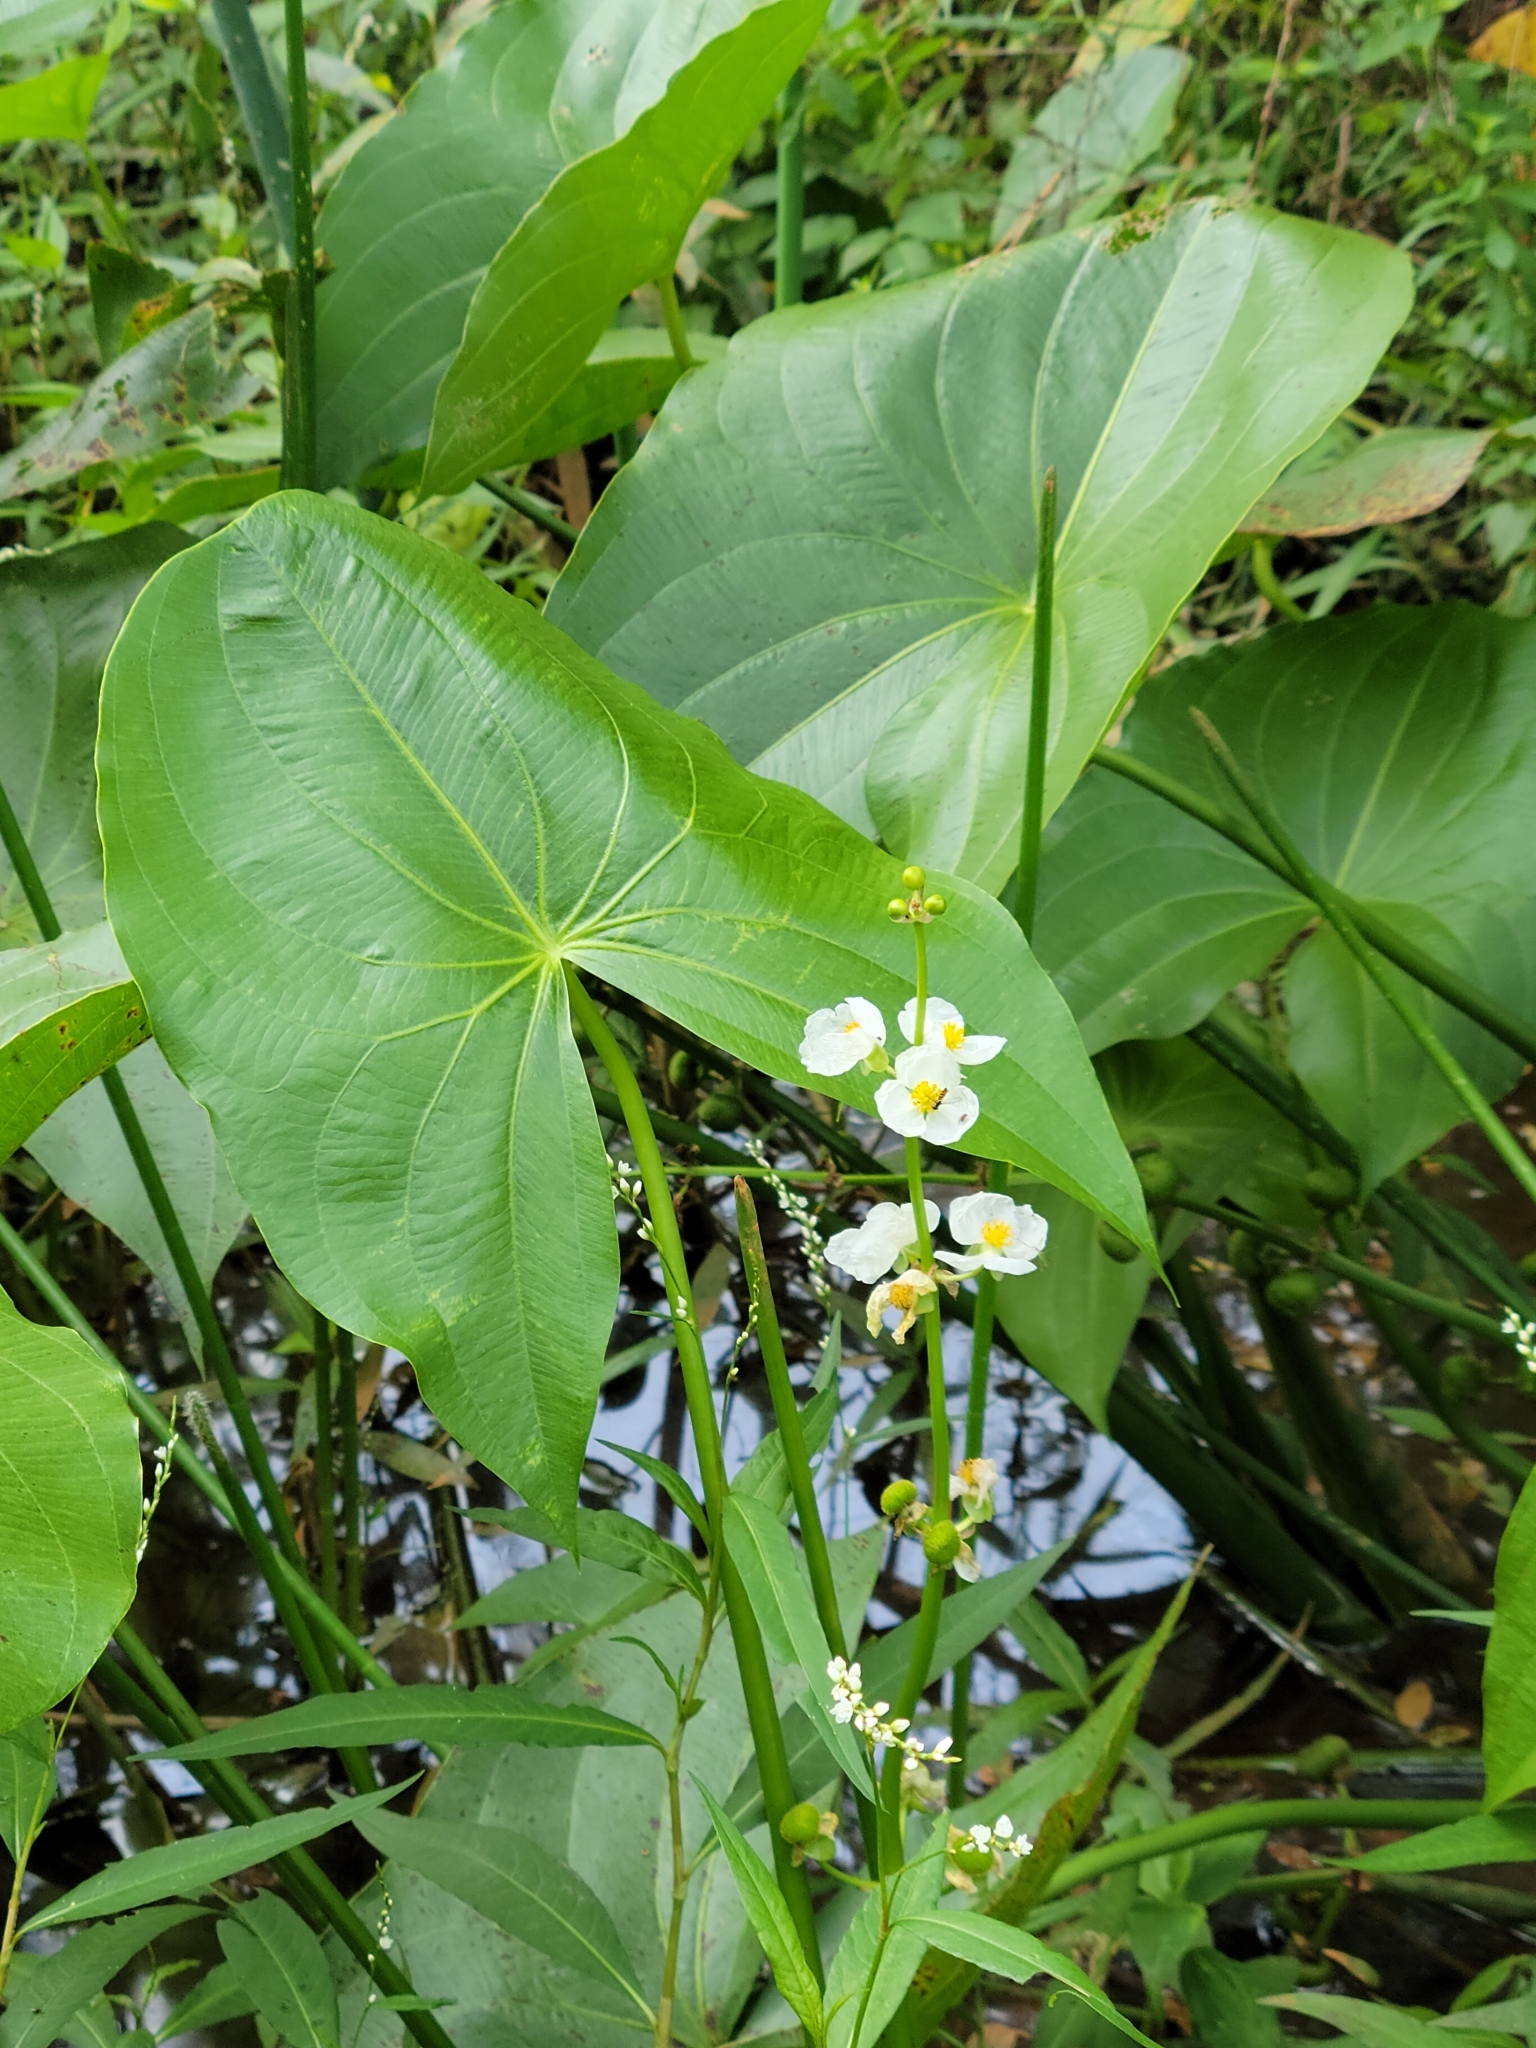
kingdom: Plantae
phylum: Tracheophyta
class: Liliopsida
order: Alismatales
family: Alismataceae
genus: Sagittaria
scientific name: Sagittaria latifolia
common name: Duck-potato
